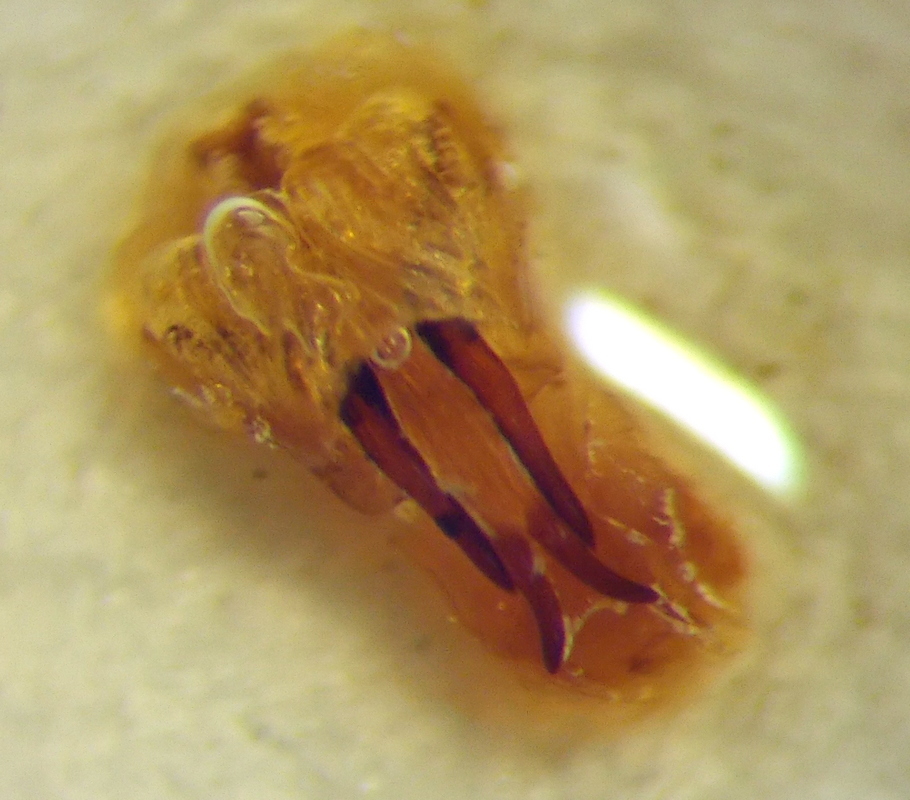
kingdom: Animalia
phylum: Arthropoda
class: Insecta
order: Hemiptera
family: Scutelleridae
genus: Eurygaster
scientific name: Eurygaster integriceps
